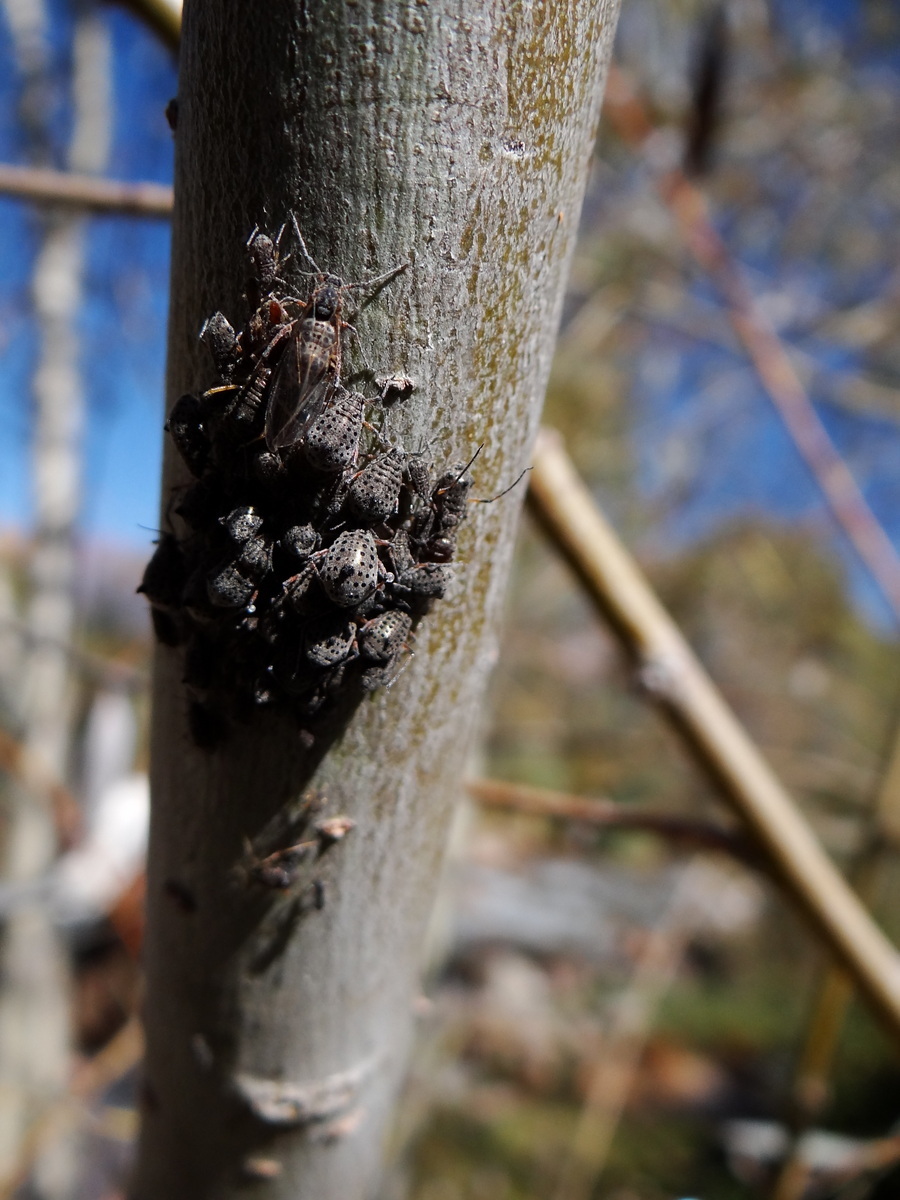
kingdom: Animalia
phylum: Arthropoda
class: Insecta
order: Hemiptera
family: Aphididae
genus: Tuberolachnus
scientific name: Tuberolachnus salignus
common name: Giant willow aphid
